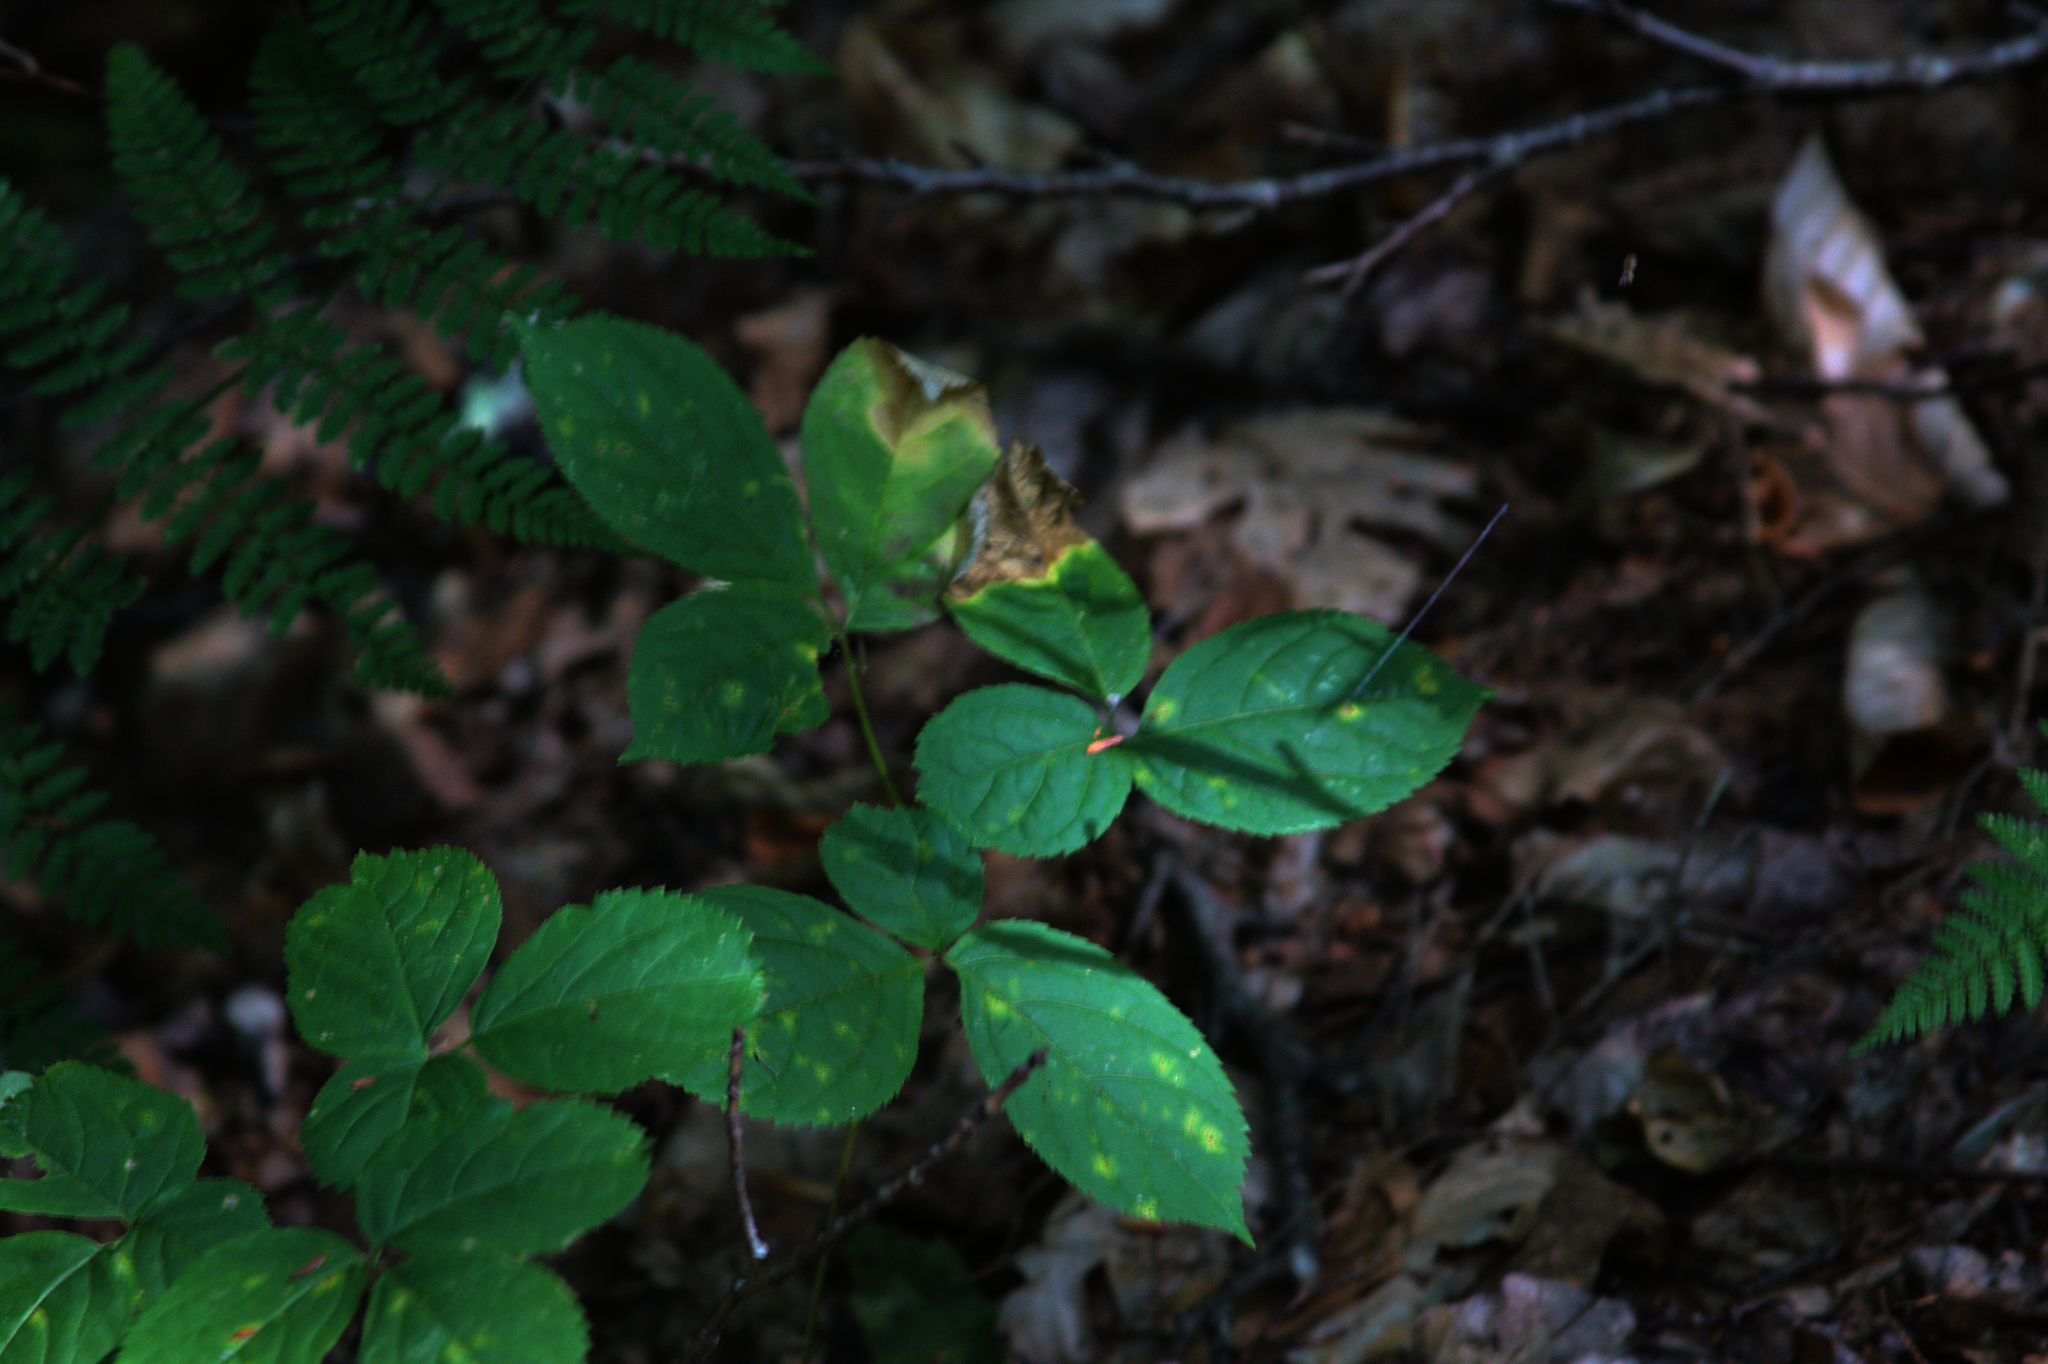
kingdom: Plantae
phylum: Tracheophyta
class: Magnoliopsida
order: Apiales
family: Araliaceae
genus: Aralia
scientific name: Aralia nudicaulis
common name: Wild sarsaparilla
